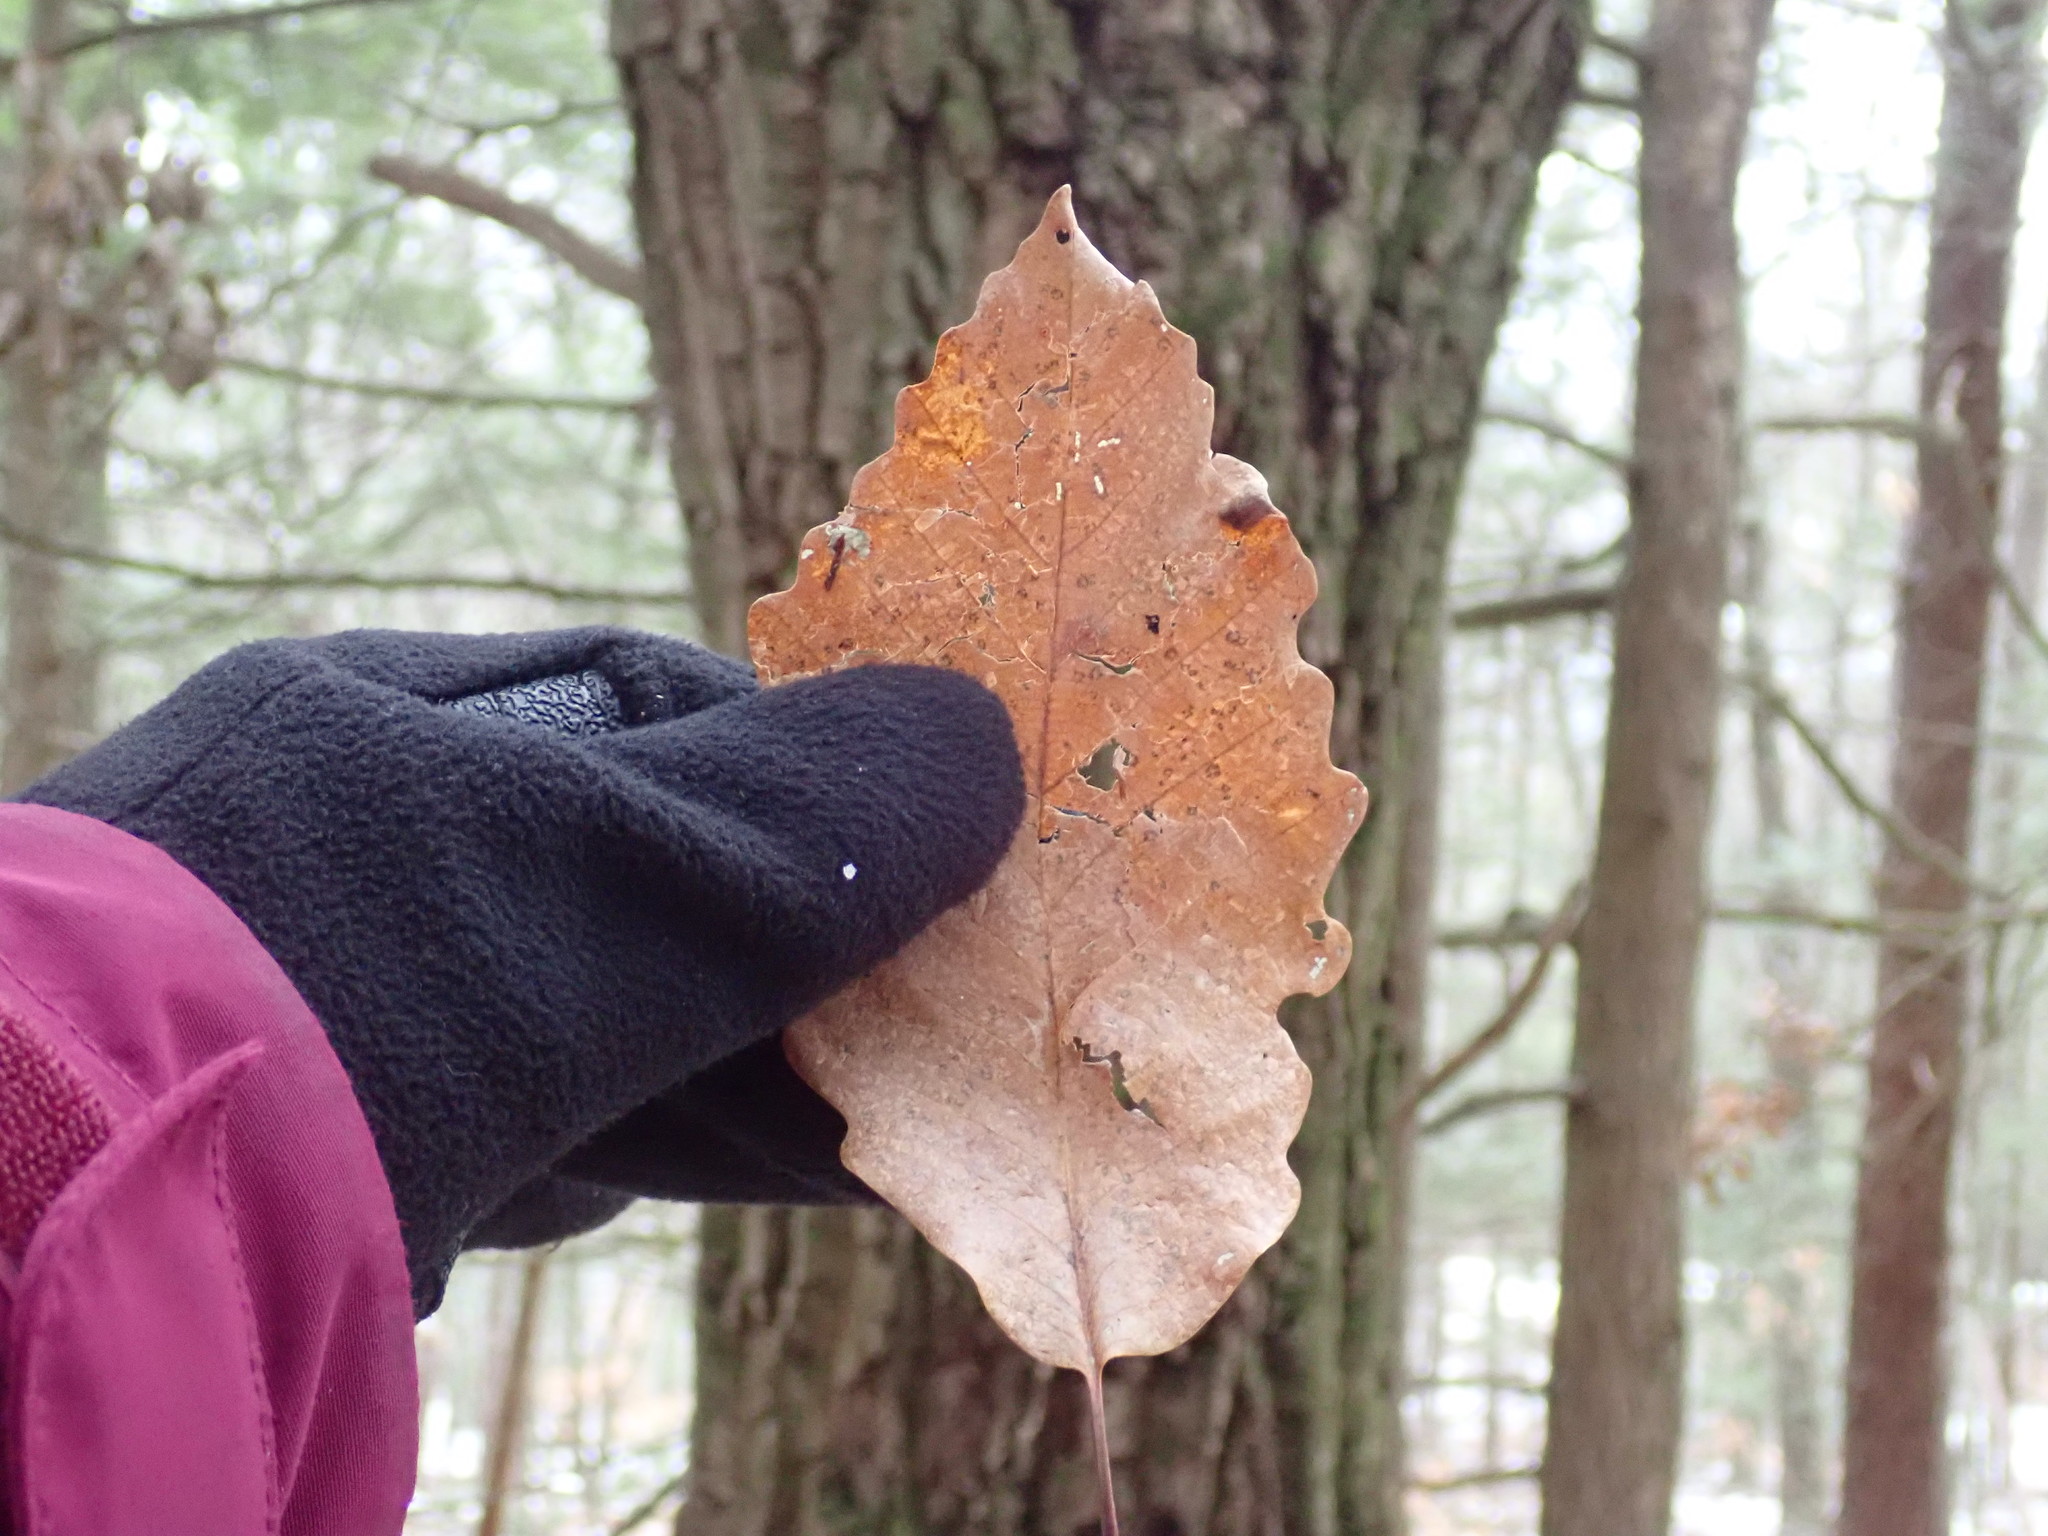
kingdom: Plantae
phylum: Tracheophyta
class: Magnoliopsida
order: Fagales
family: Fagaceae
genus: Quercus
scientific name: Quercus montana
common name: Chestnut oak
